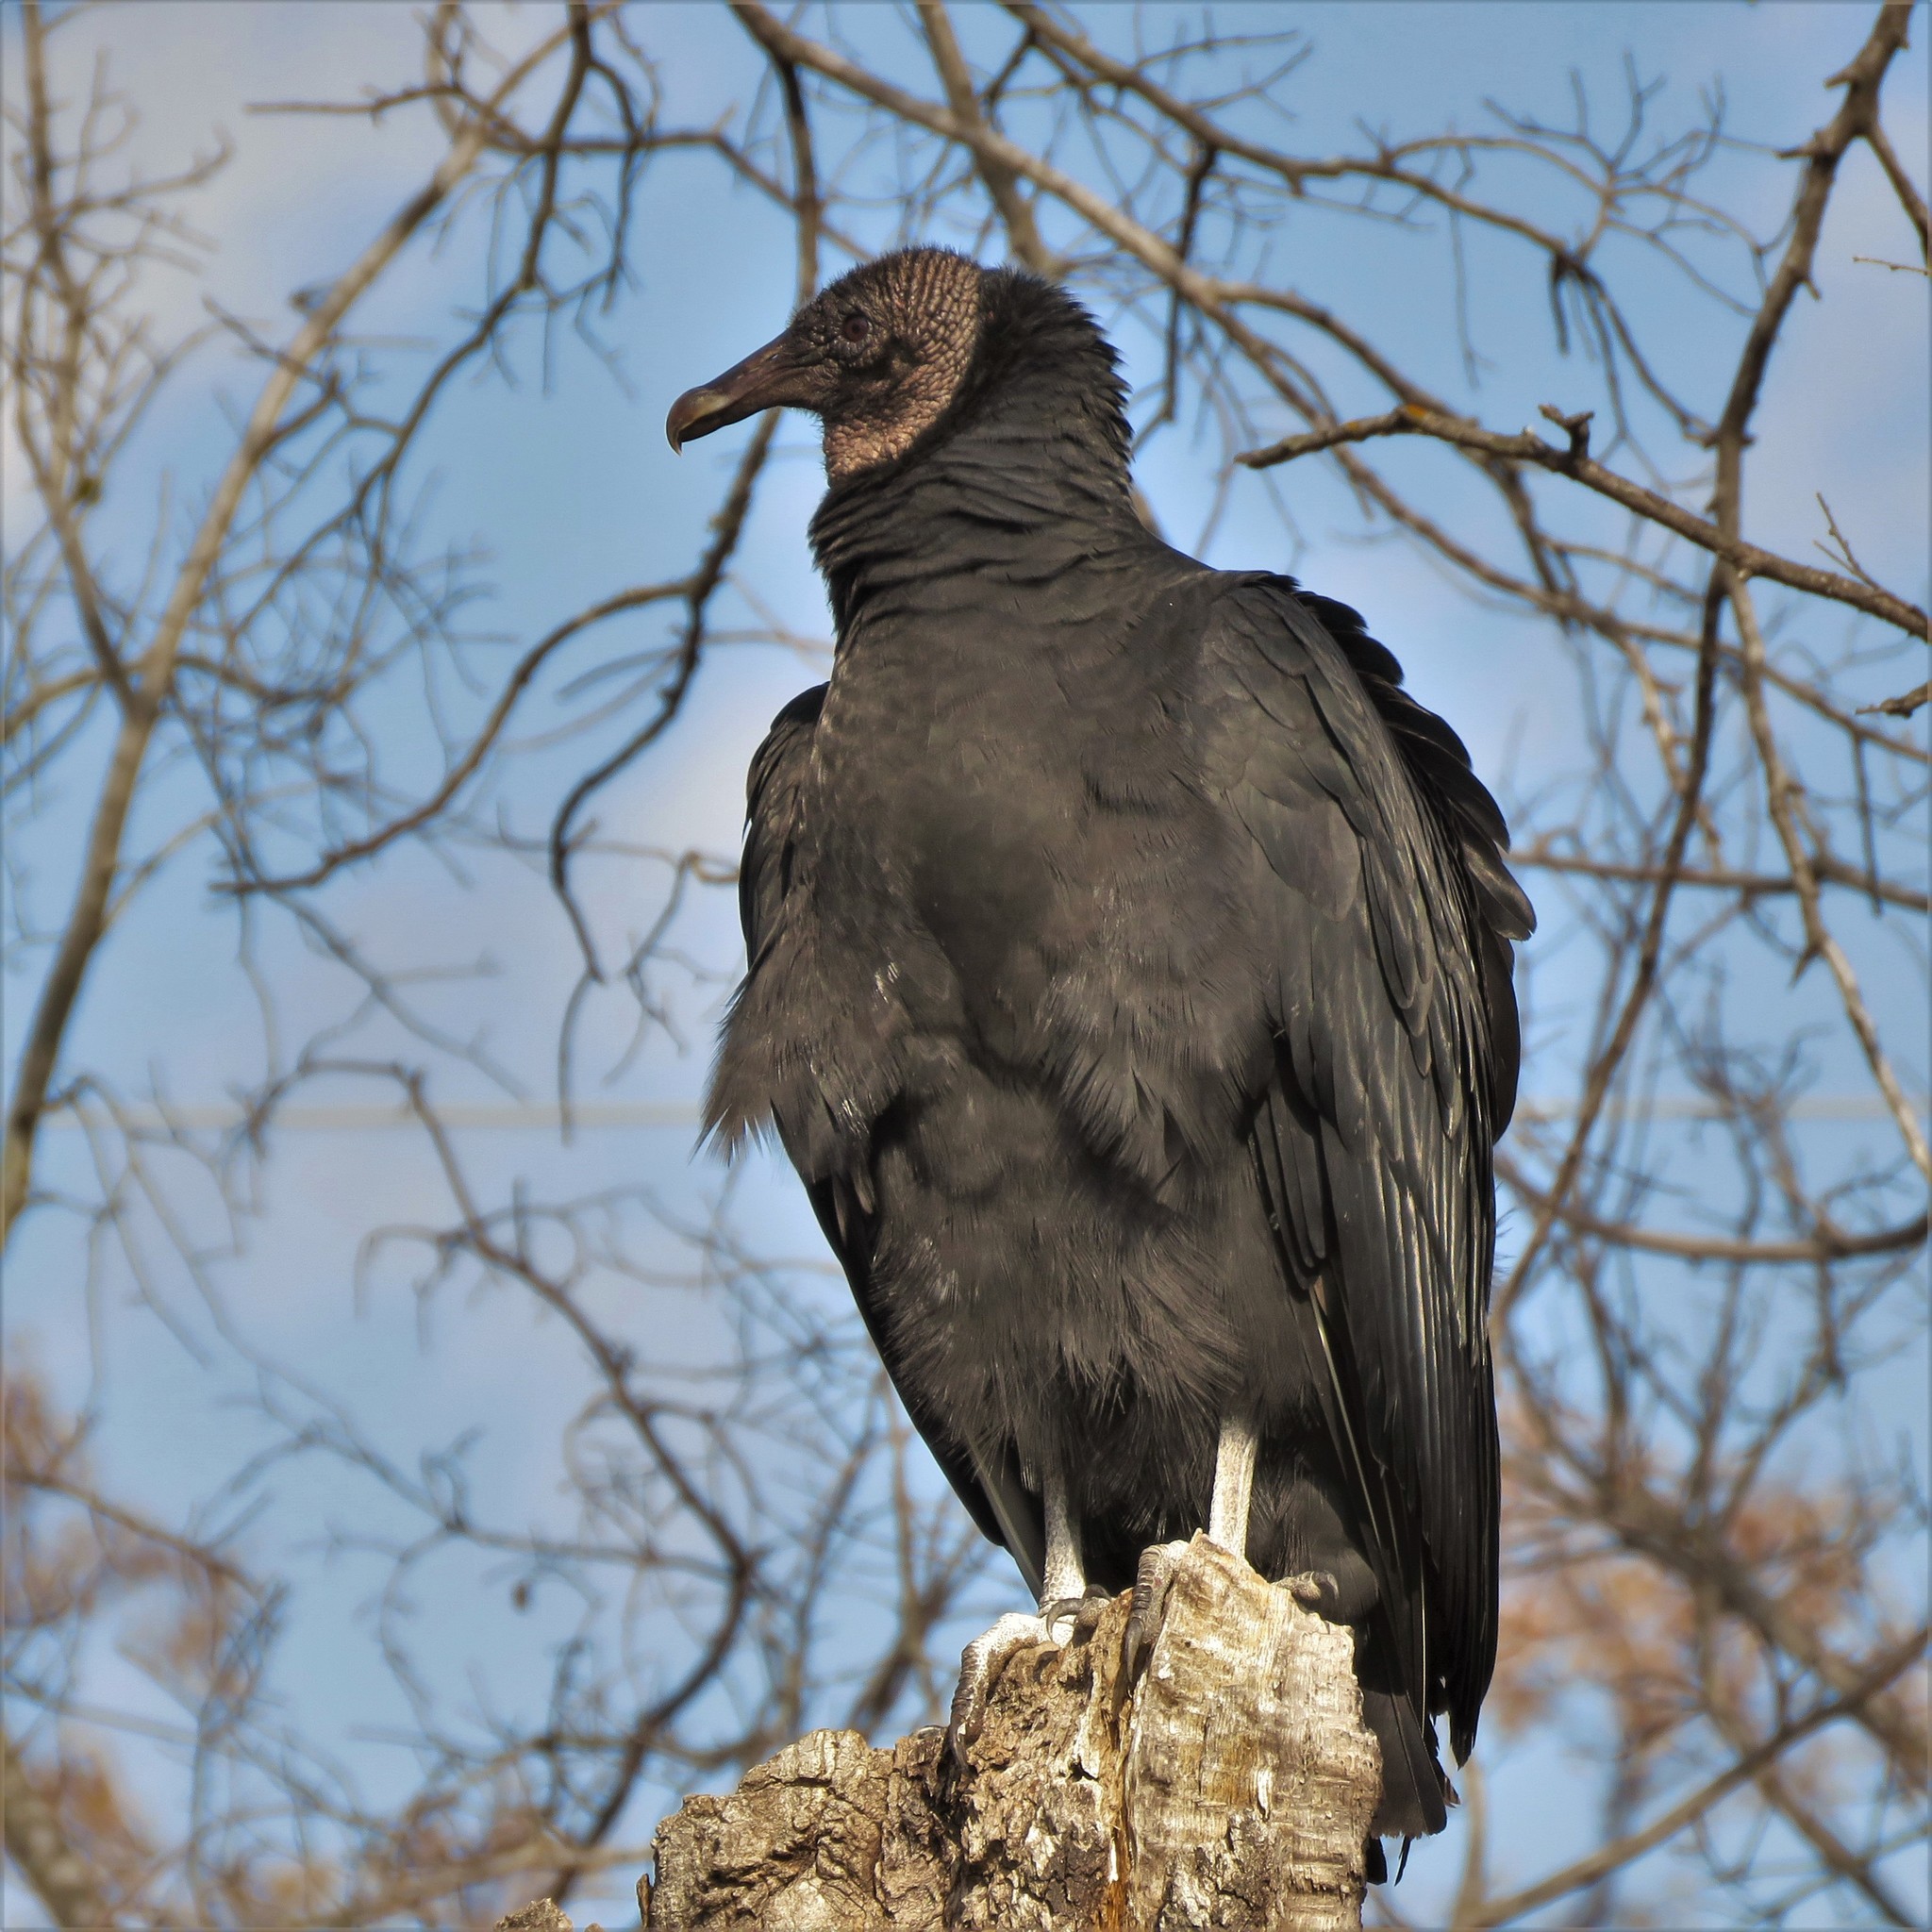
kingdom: Animalia
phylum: Chordata
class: Aves
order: Accipitriformes
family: Cathartidae
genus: Coragyps
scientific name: Coragyps atratus
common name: Black vulture
